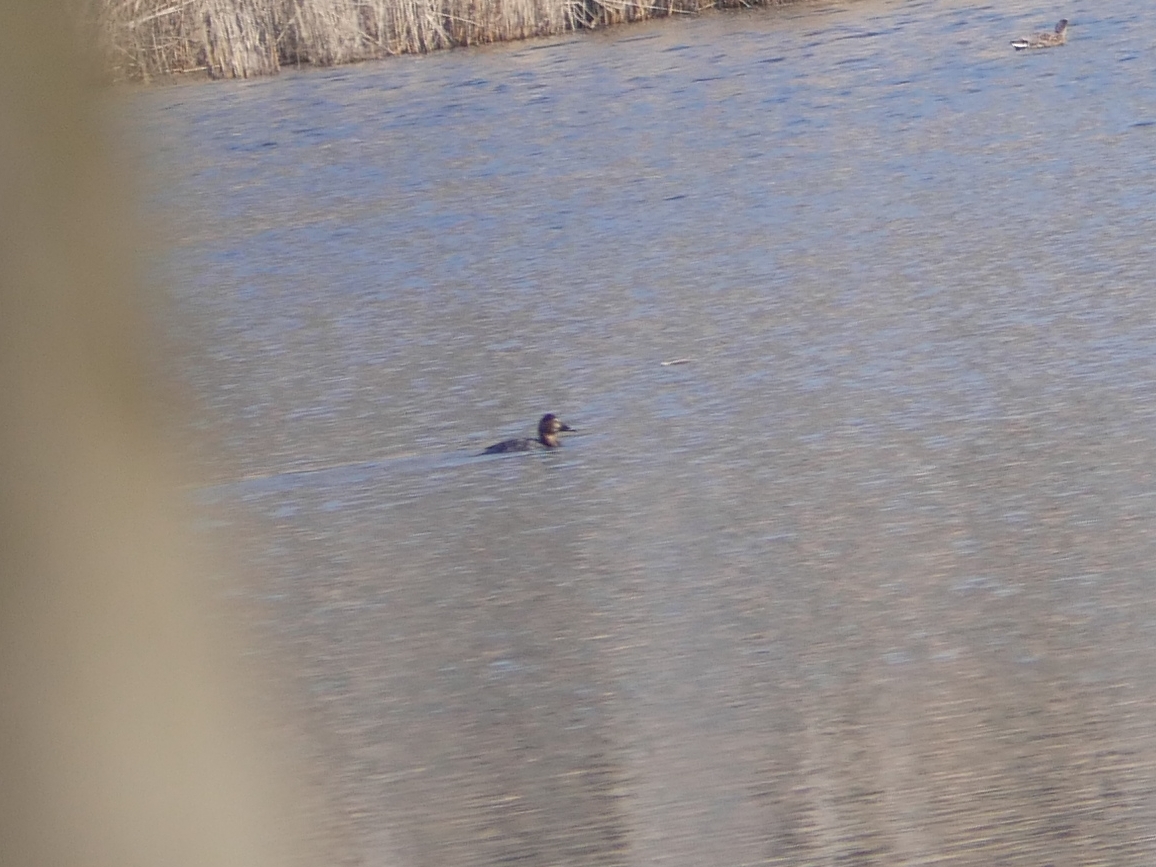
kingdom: Animalia
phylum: Chordata
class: Aves
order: Anseriformes
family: Anatidae
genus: Aythya
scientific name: Aythya ferina
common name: Common pochard
